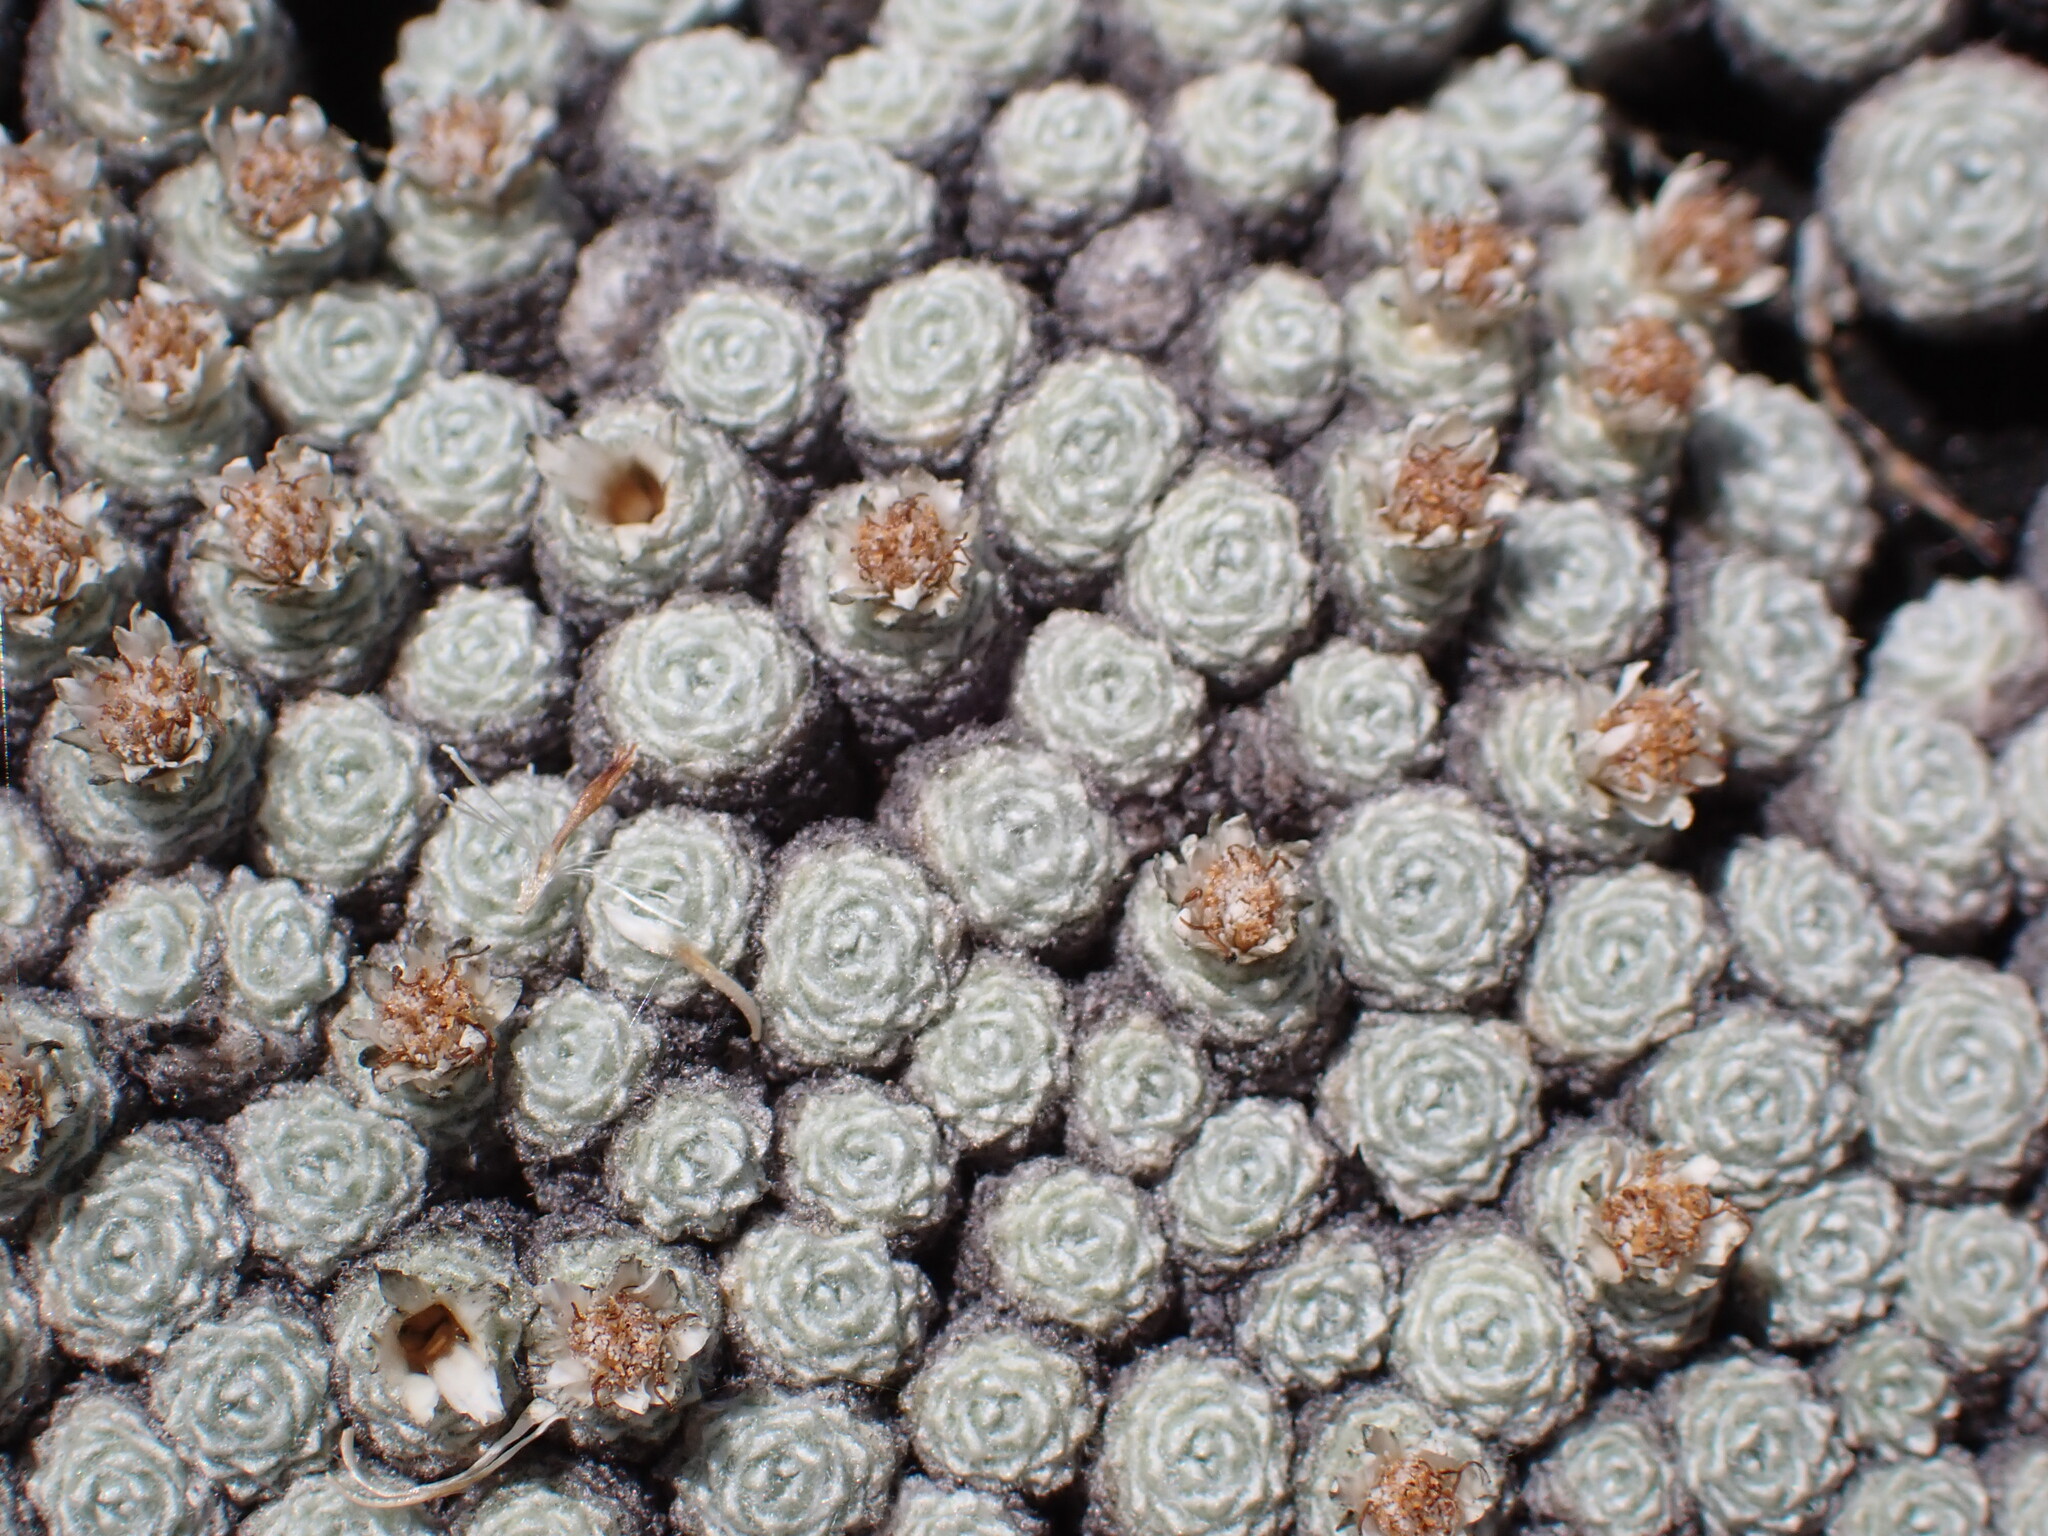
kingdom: Plantae
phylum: Tracheophyta
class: Magnoliopsida
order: Asterales
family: Asteraceae
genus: Raoulia
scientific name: Raoulia bryoides
